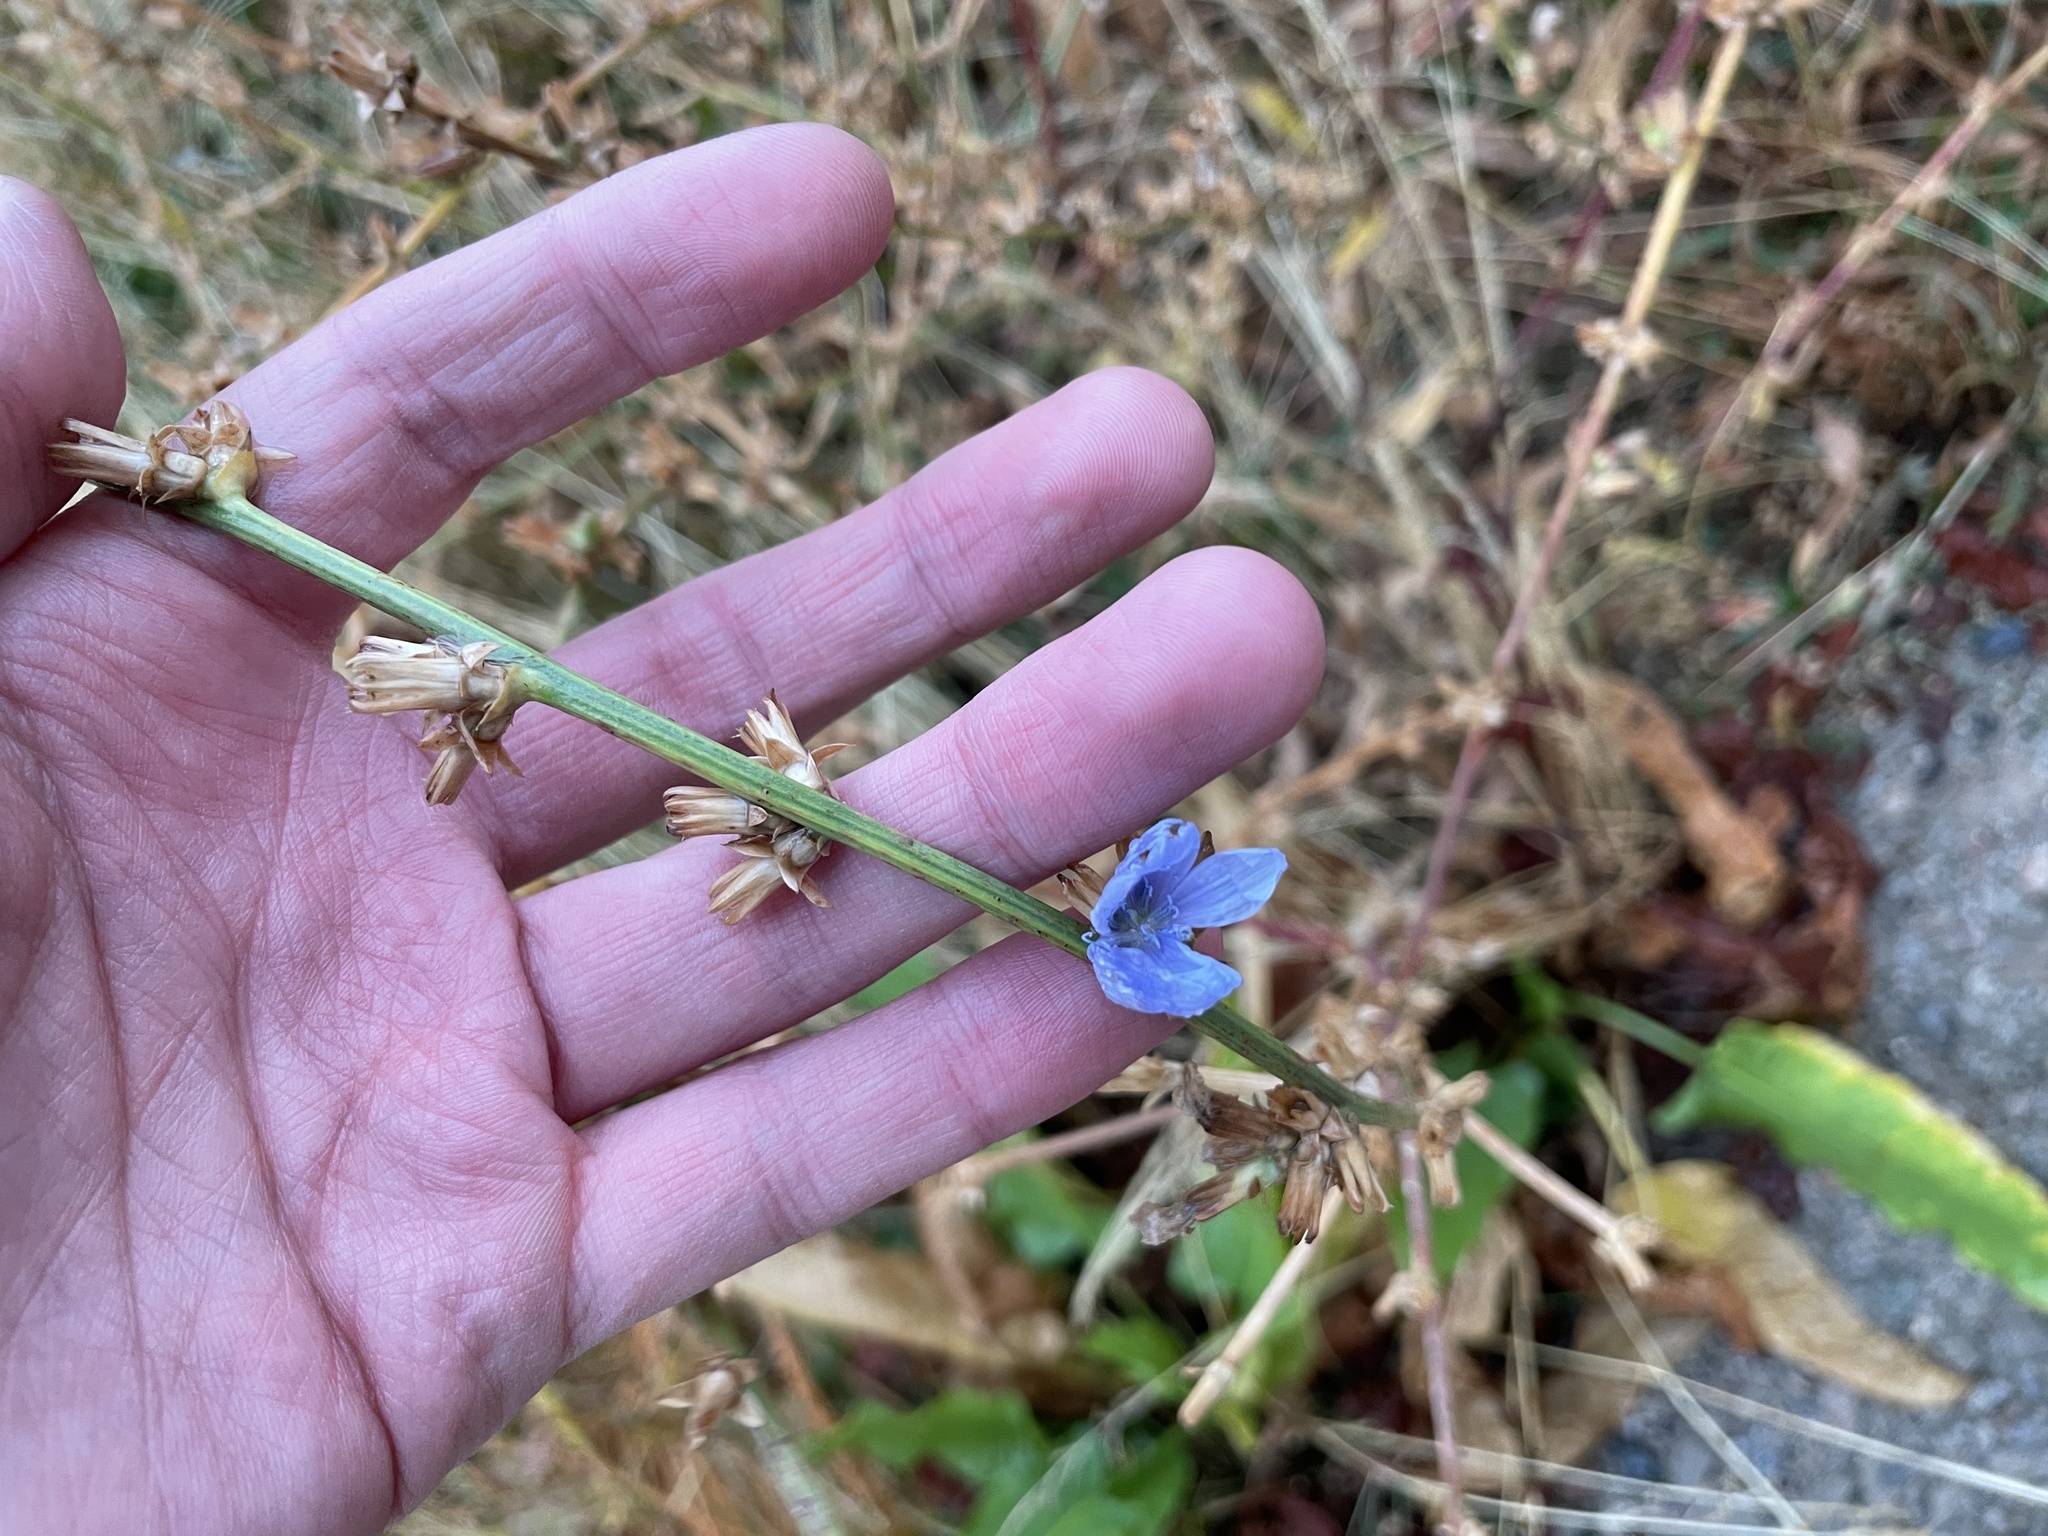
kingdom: Plantae
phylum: Tracheophyta
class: Magnoliopsida
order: Asterales
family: Asteraceae
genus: Cichorium
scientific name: Cichorium intybus
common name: Chicory
